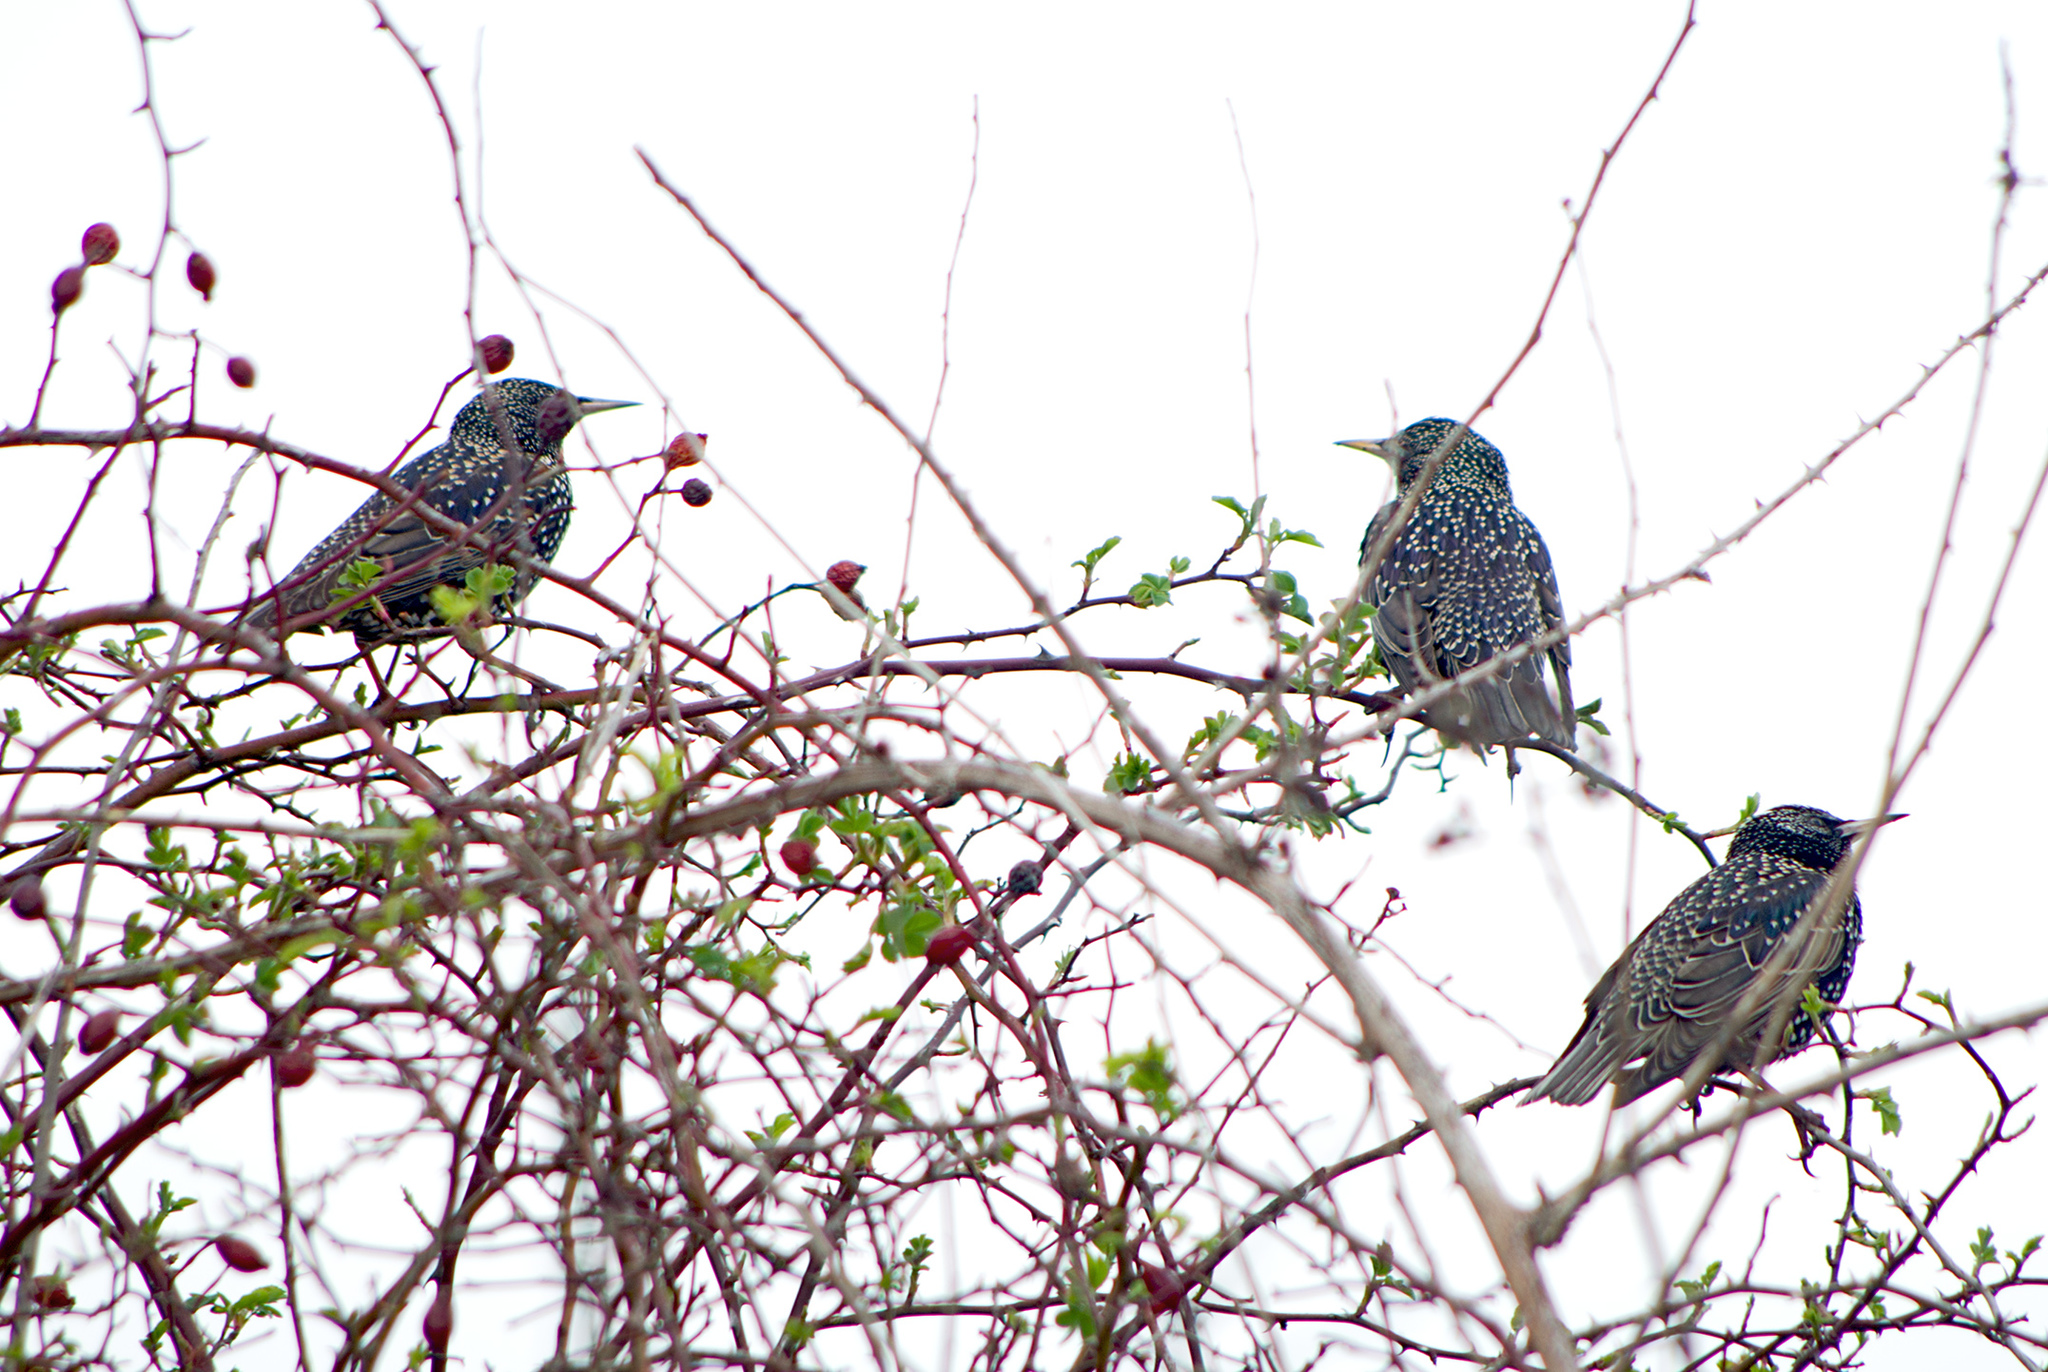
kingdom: Animalia
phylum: Chordata
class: Aves
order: Passeriformes
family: Sturnidae
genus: Sturnus
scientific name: Sturnus vulgaris
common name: Common starling
